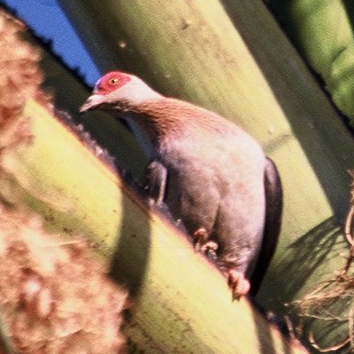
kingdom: Animalia
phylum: Chordata
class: Aves
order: Columbiformes
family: Columbidae
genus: Columba
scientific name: Columba guinea
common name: Speckled pigeon
